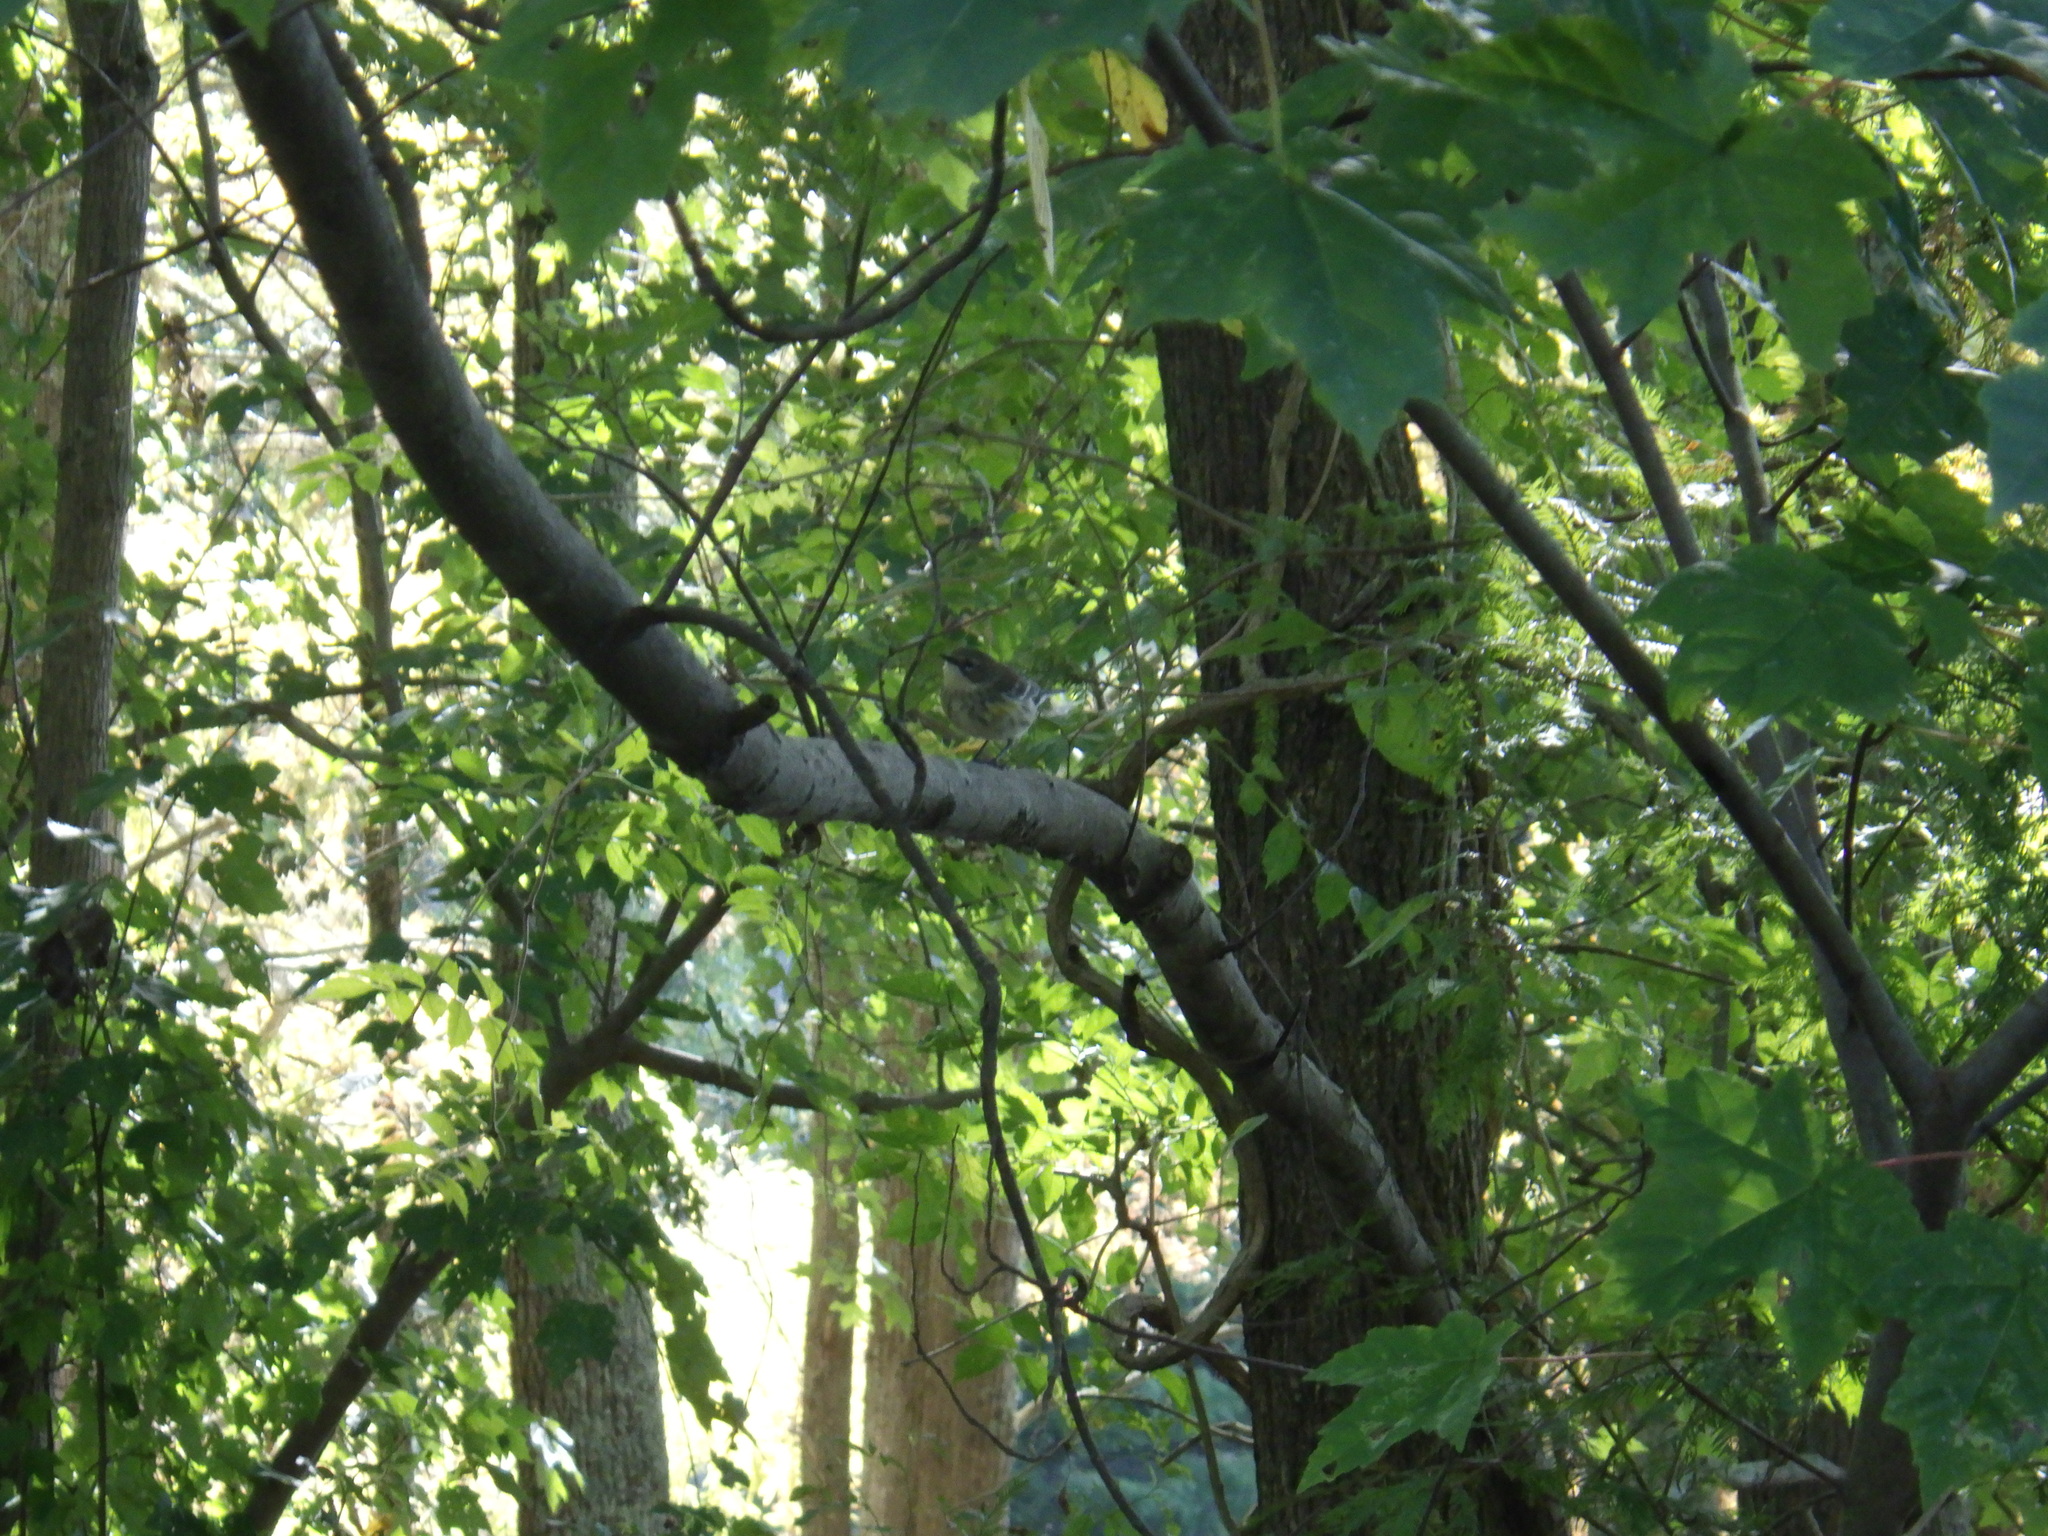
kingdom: Animalia
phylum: Chordata
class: Aves
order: Passeriformes
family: Parulidae
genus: Setophaga
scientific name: Setophaga coronata
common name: Myrtle warbler
